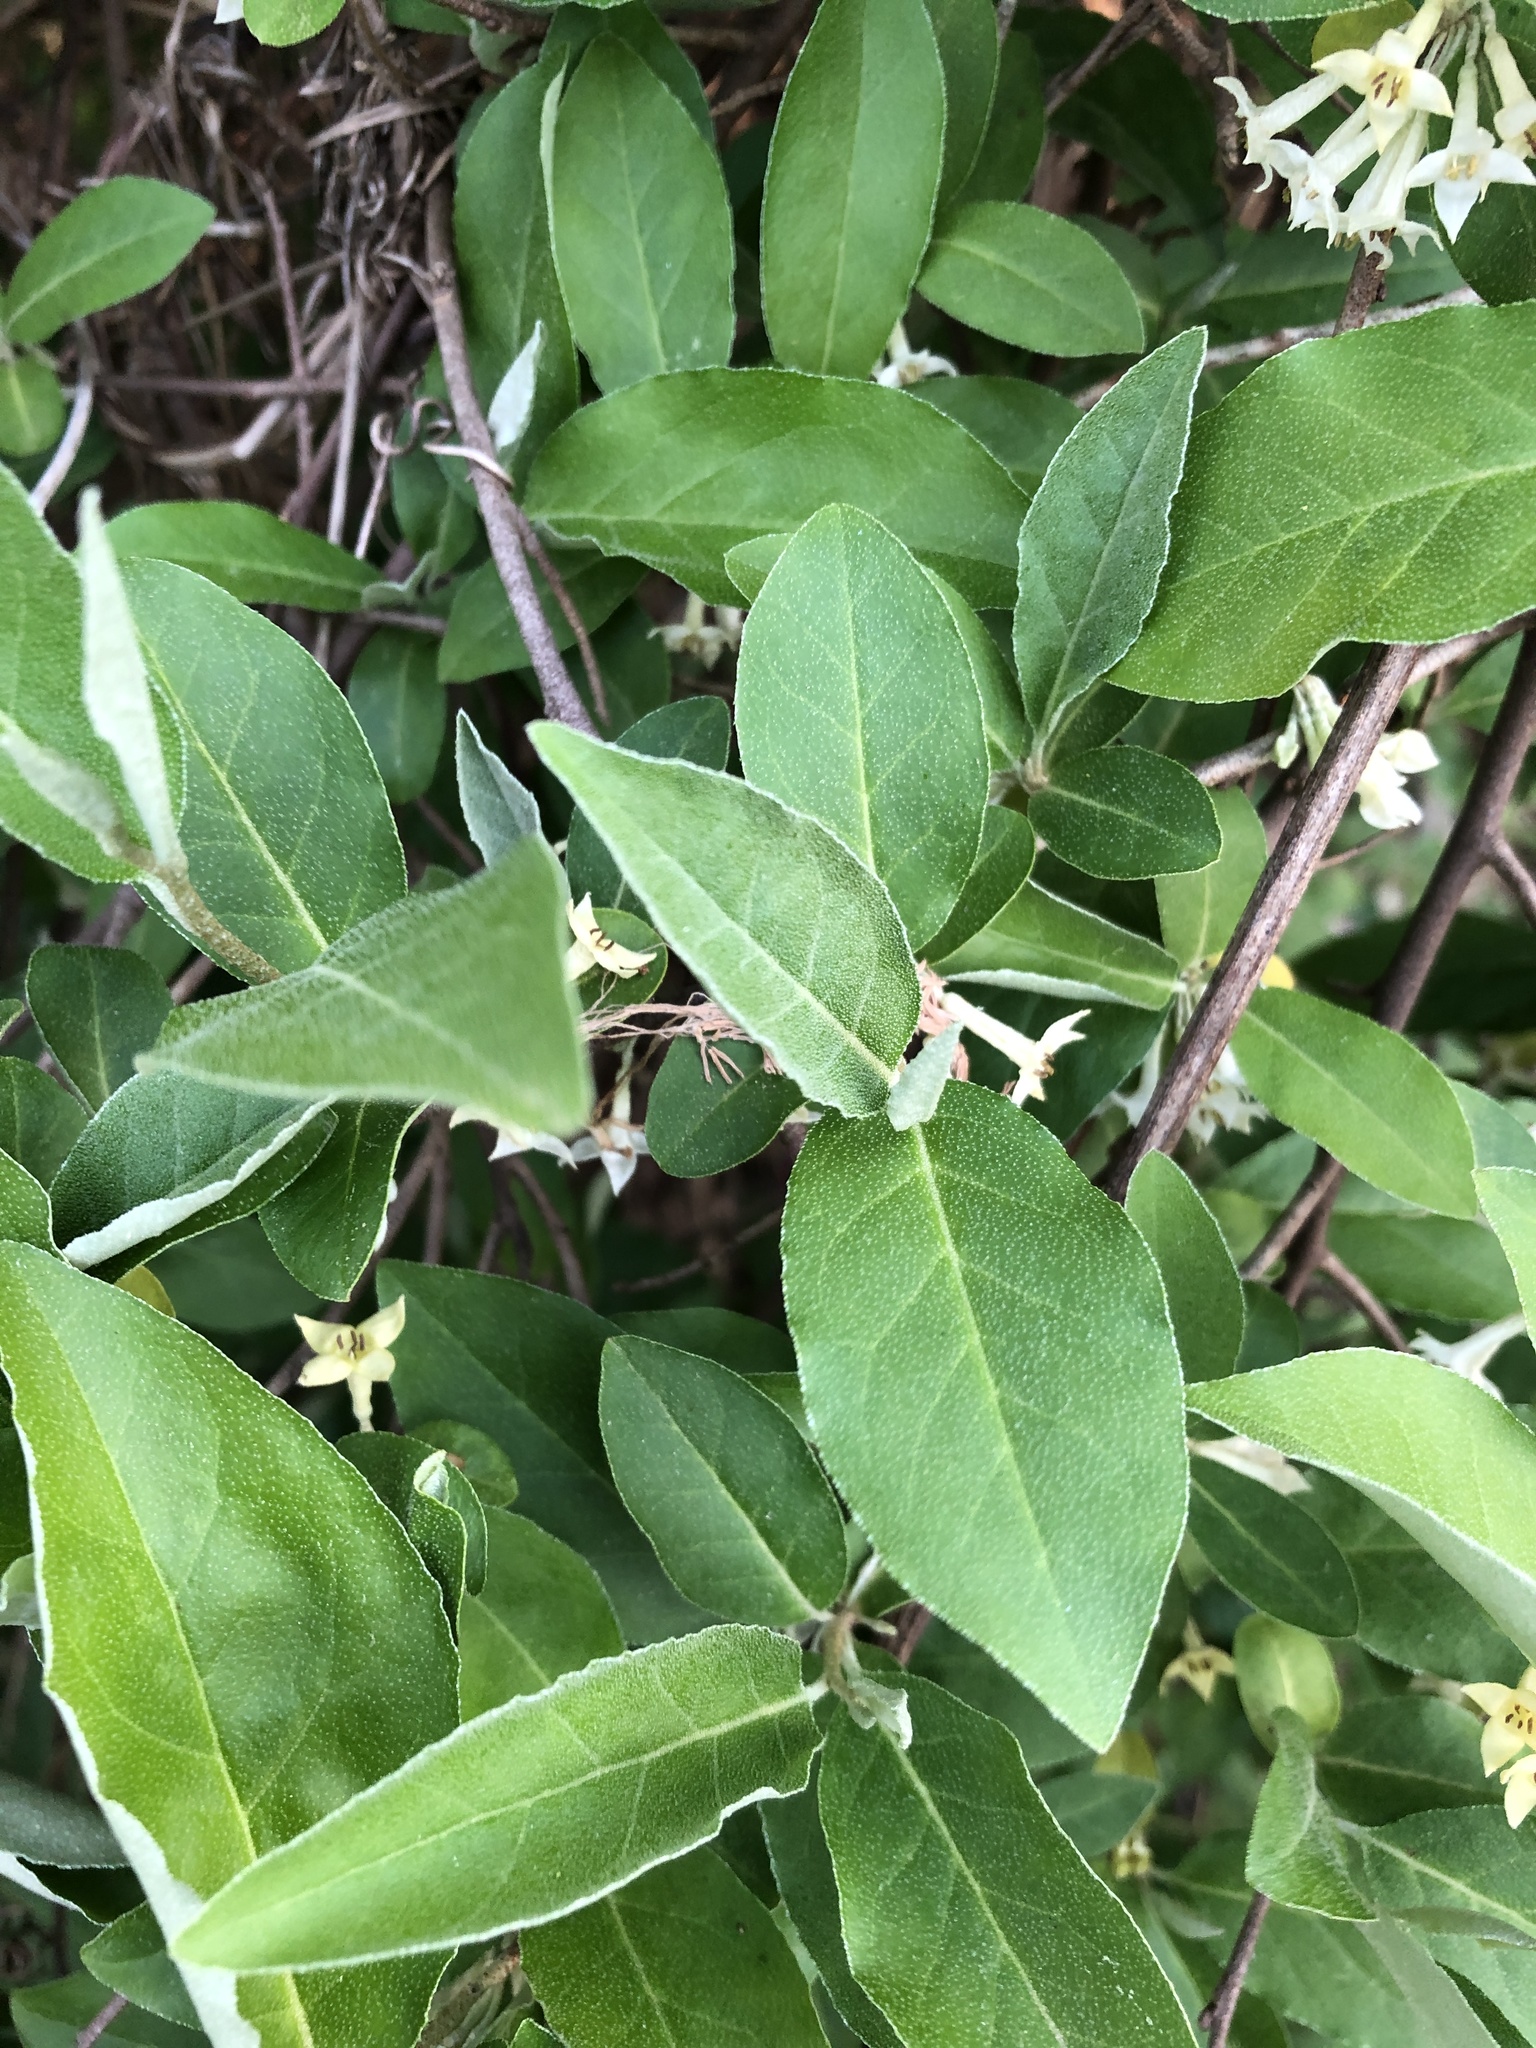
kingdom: Plantae
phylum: Tracheophyta
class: Magnoliopsida
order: Rosales
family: Elaeagnaceae
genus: Elaeagnus
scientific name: Elaeagnus umbellata
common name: Autumn olive
